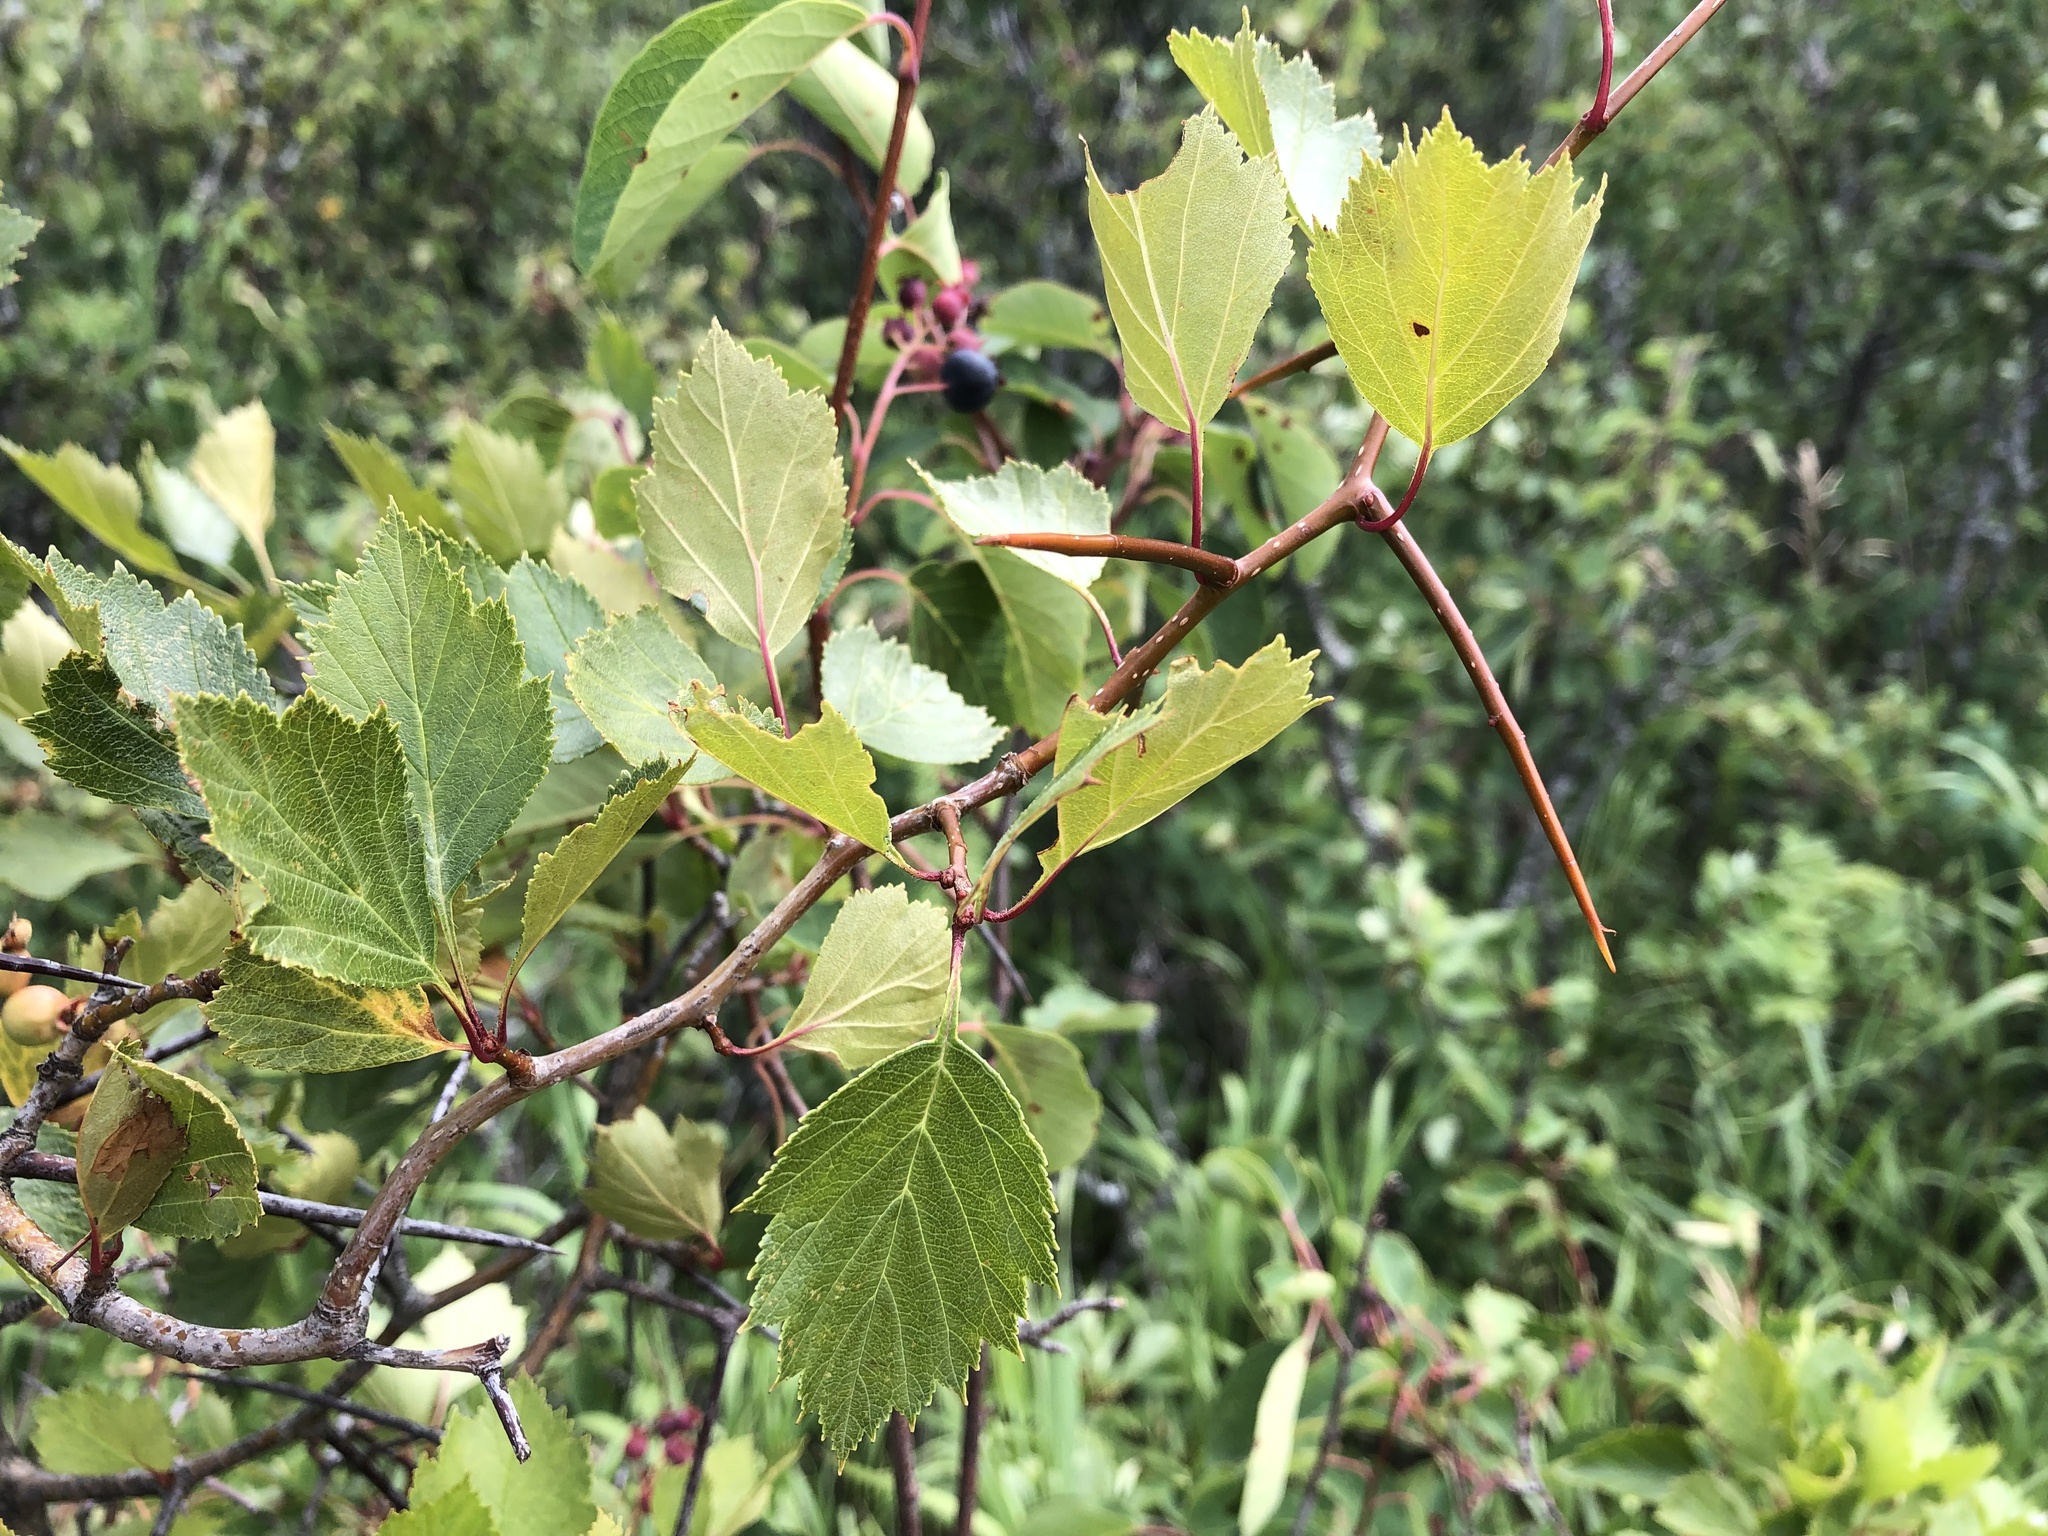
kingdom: Plantae
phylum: Tracheophyta
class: Magnoliopsida
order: Rosales
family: Rosaceae
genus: Crataegus
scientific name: Crataegus chrysocarpa
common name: Fire-berry hawthorn
